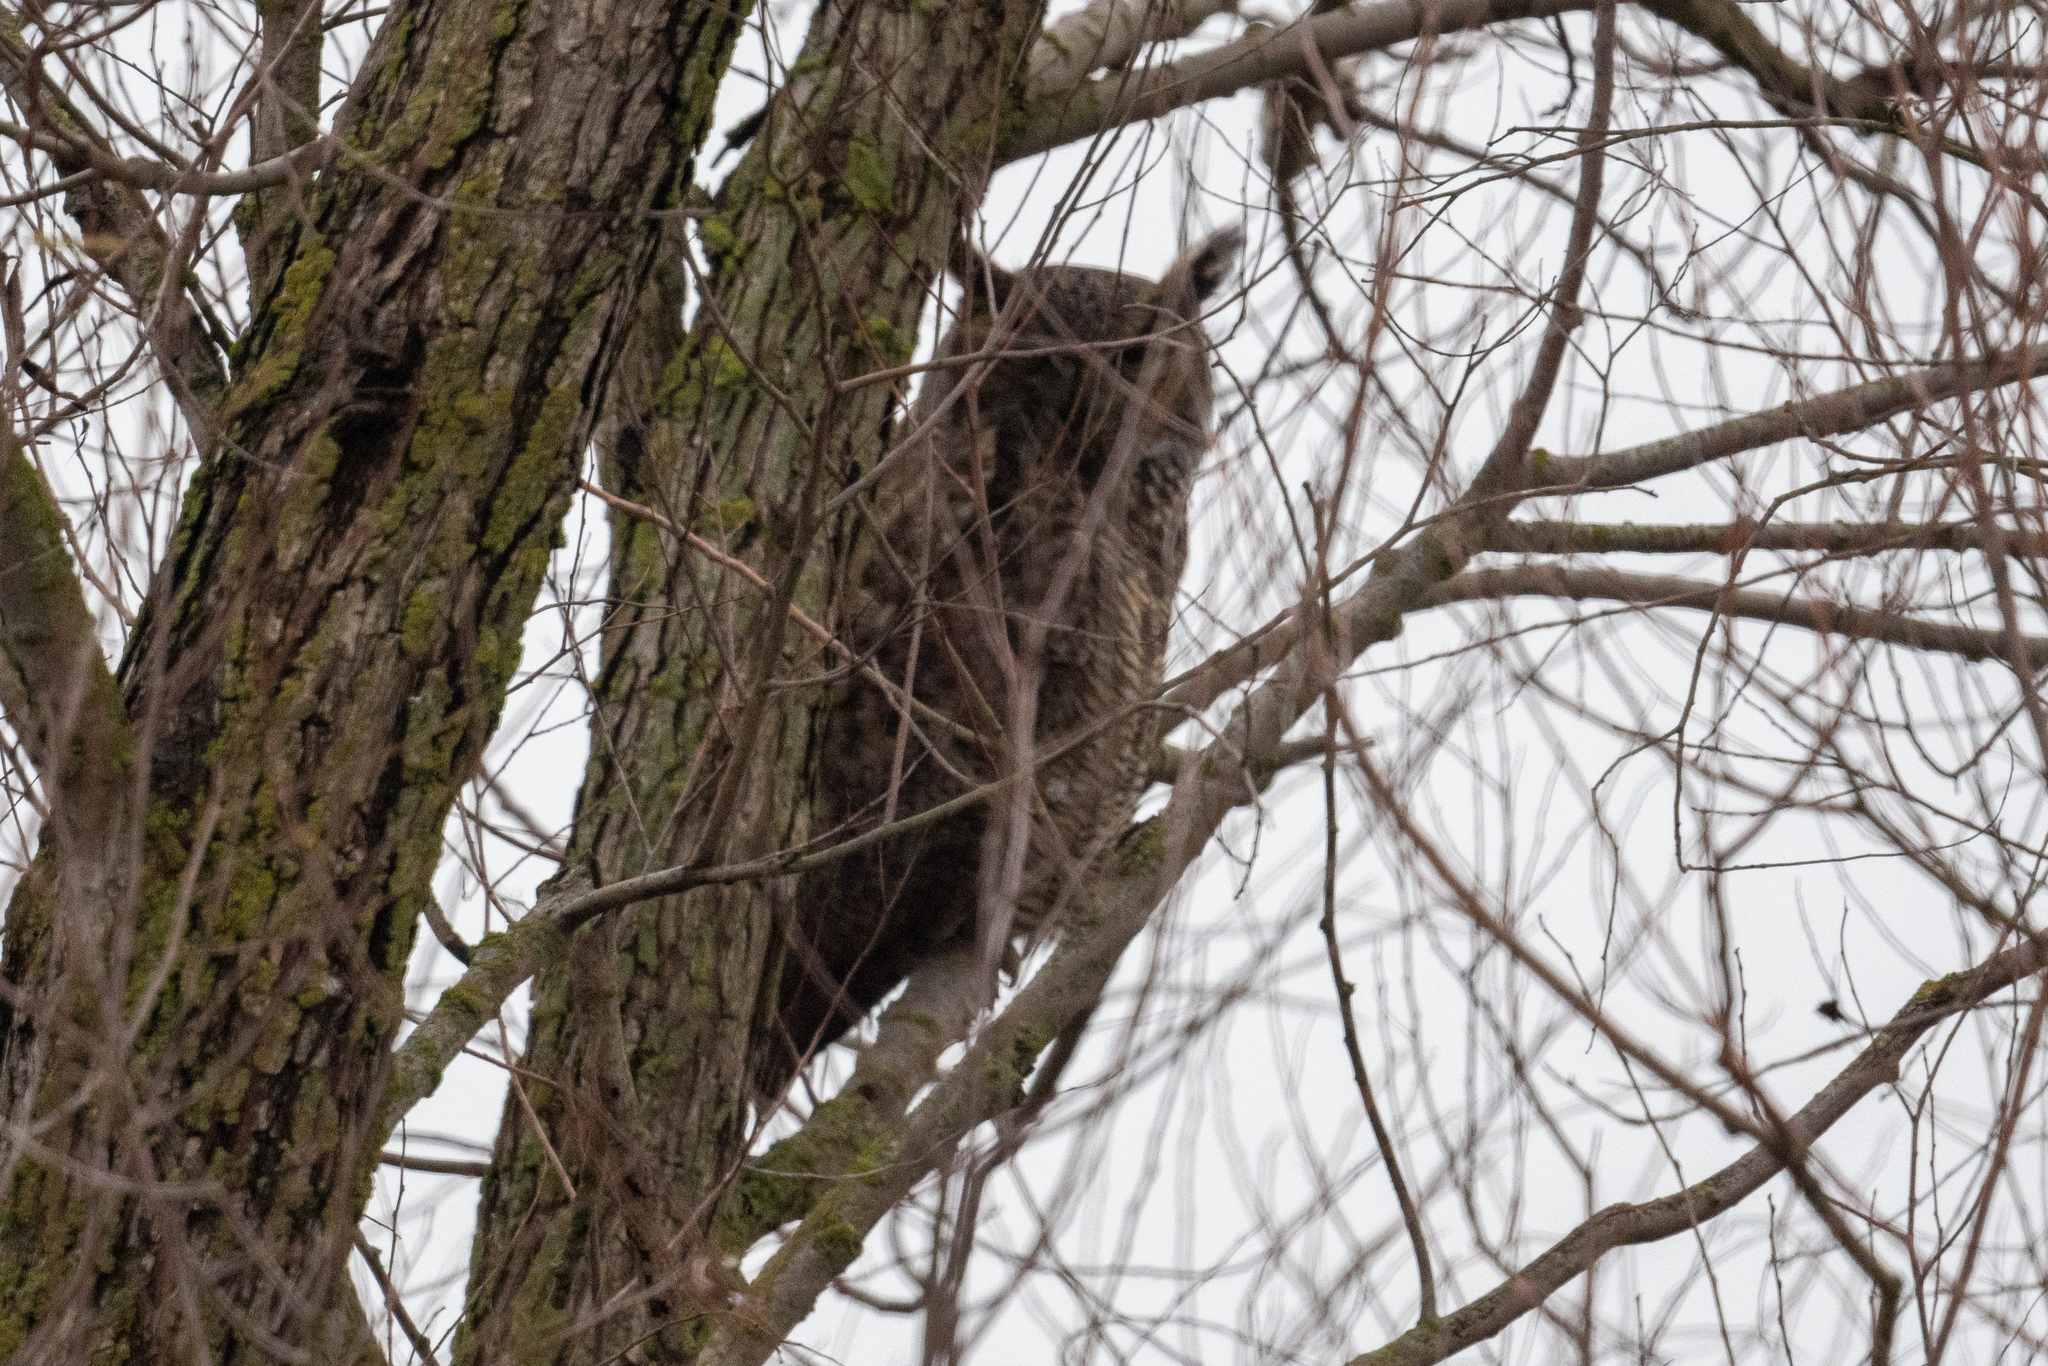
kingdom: Animalia
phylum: Chordata
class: Aves
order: Strigiformes
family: Strigidae
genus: Bubo
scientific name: Bubo virginianus
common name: Great horned owl
